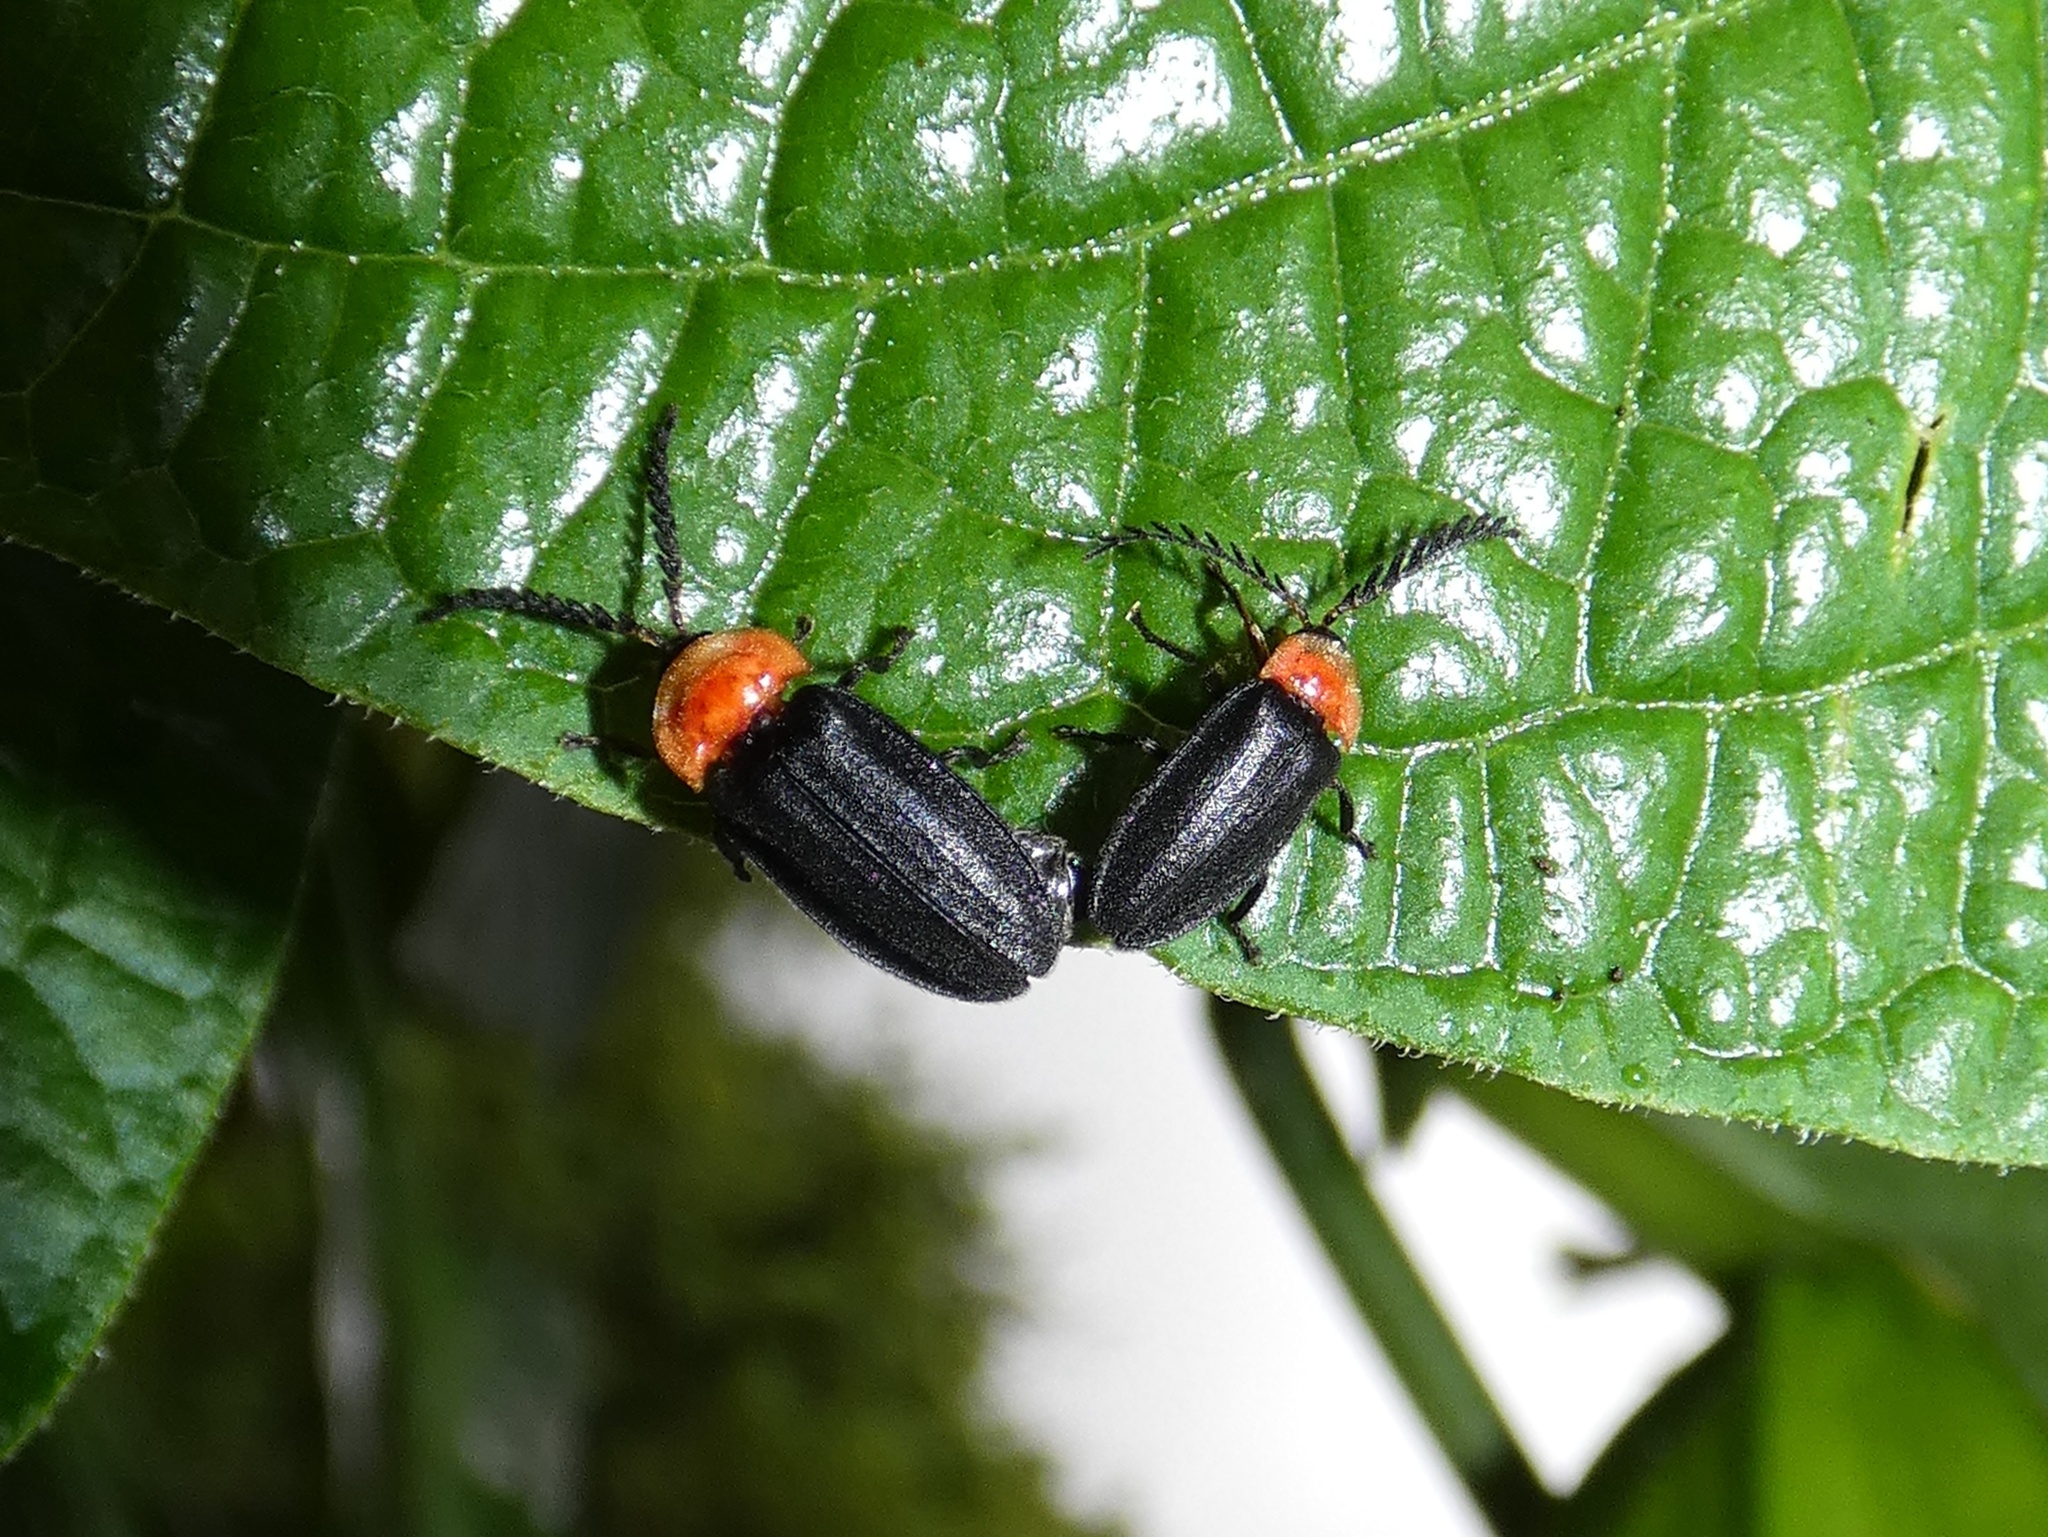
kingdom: Animalia
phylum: Arthropoda
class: Insecta
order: Coleoptera
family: Lampyridae
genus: Vesta
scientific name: Vesta thoracica
